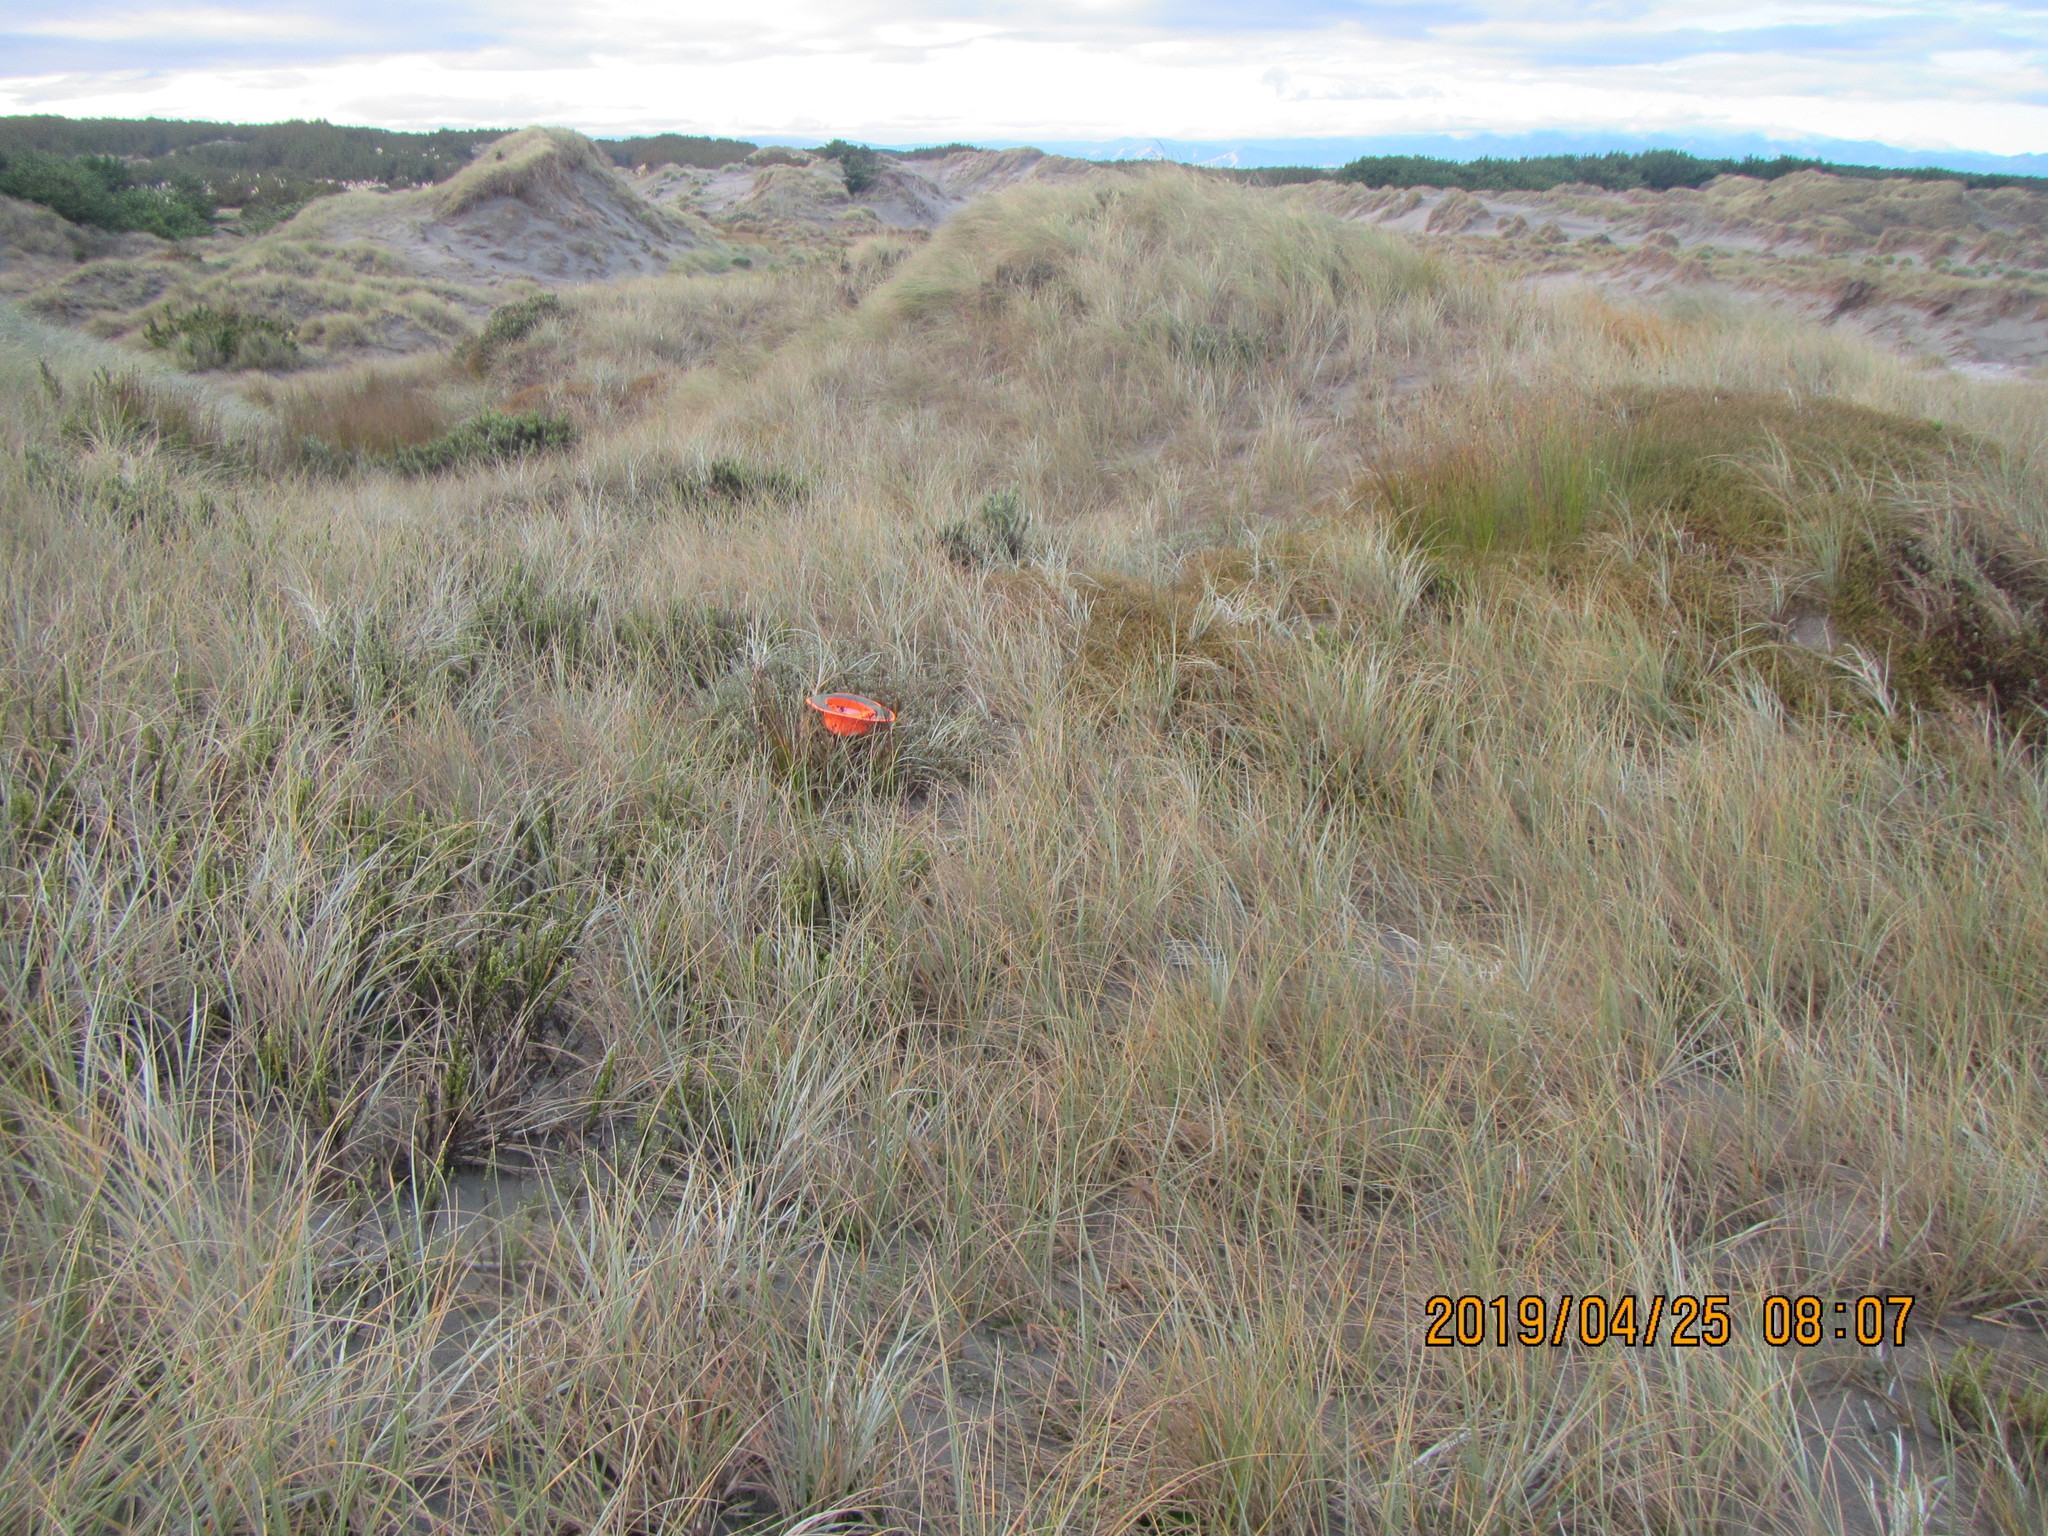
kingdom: Plantae
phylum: Tracheophyta
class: Magnoliopsida
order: Malvales
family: Thymelaeaceae
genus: Pimelea
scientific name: Pimelea villosa
